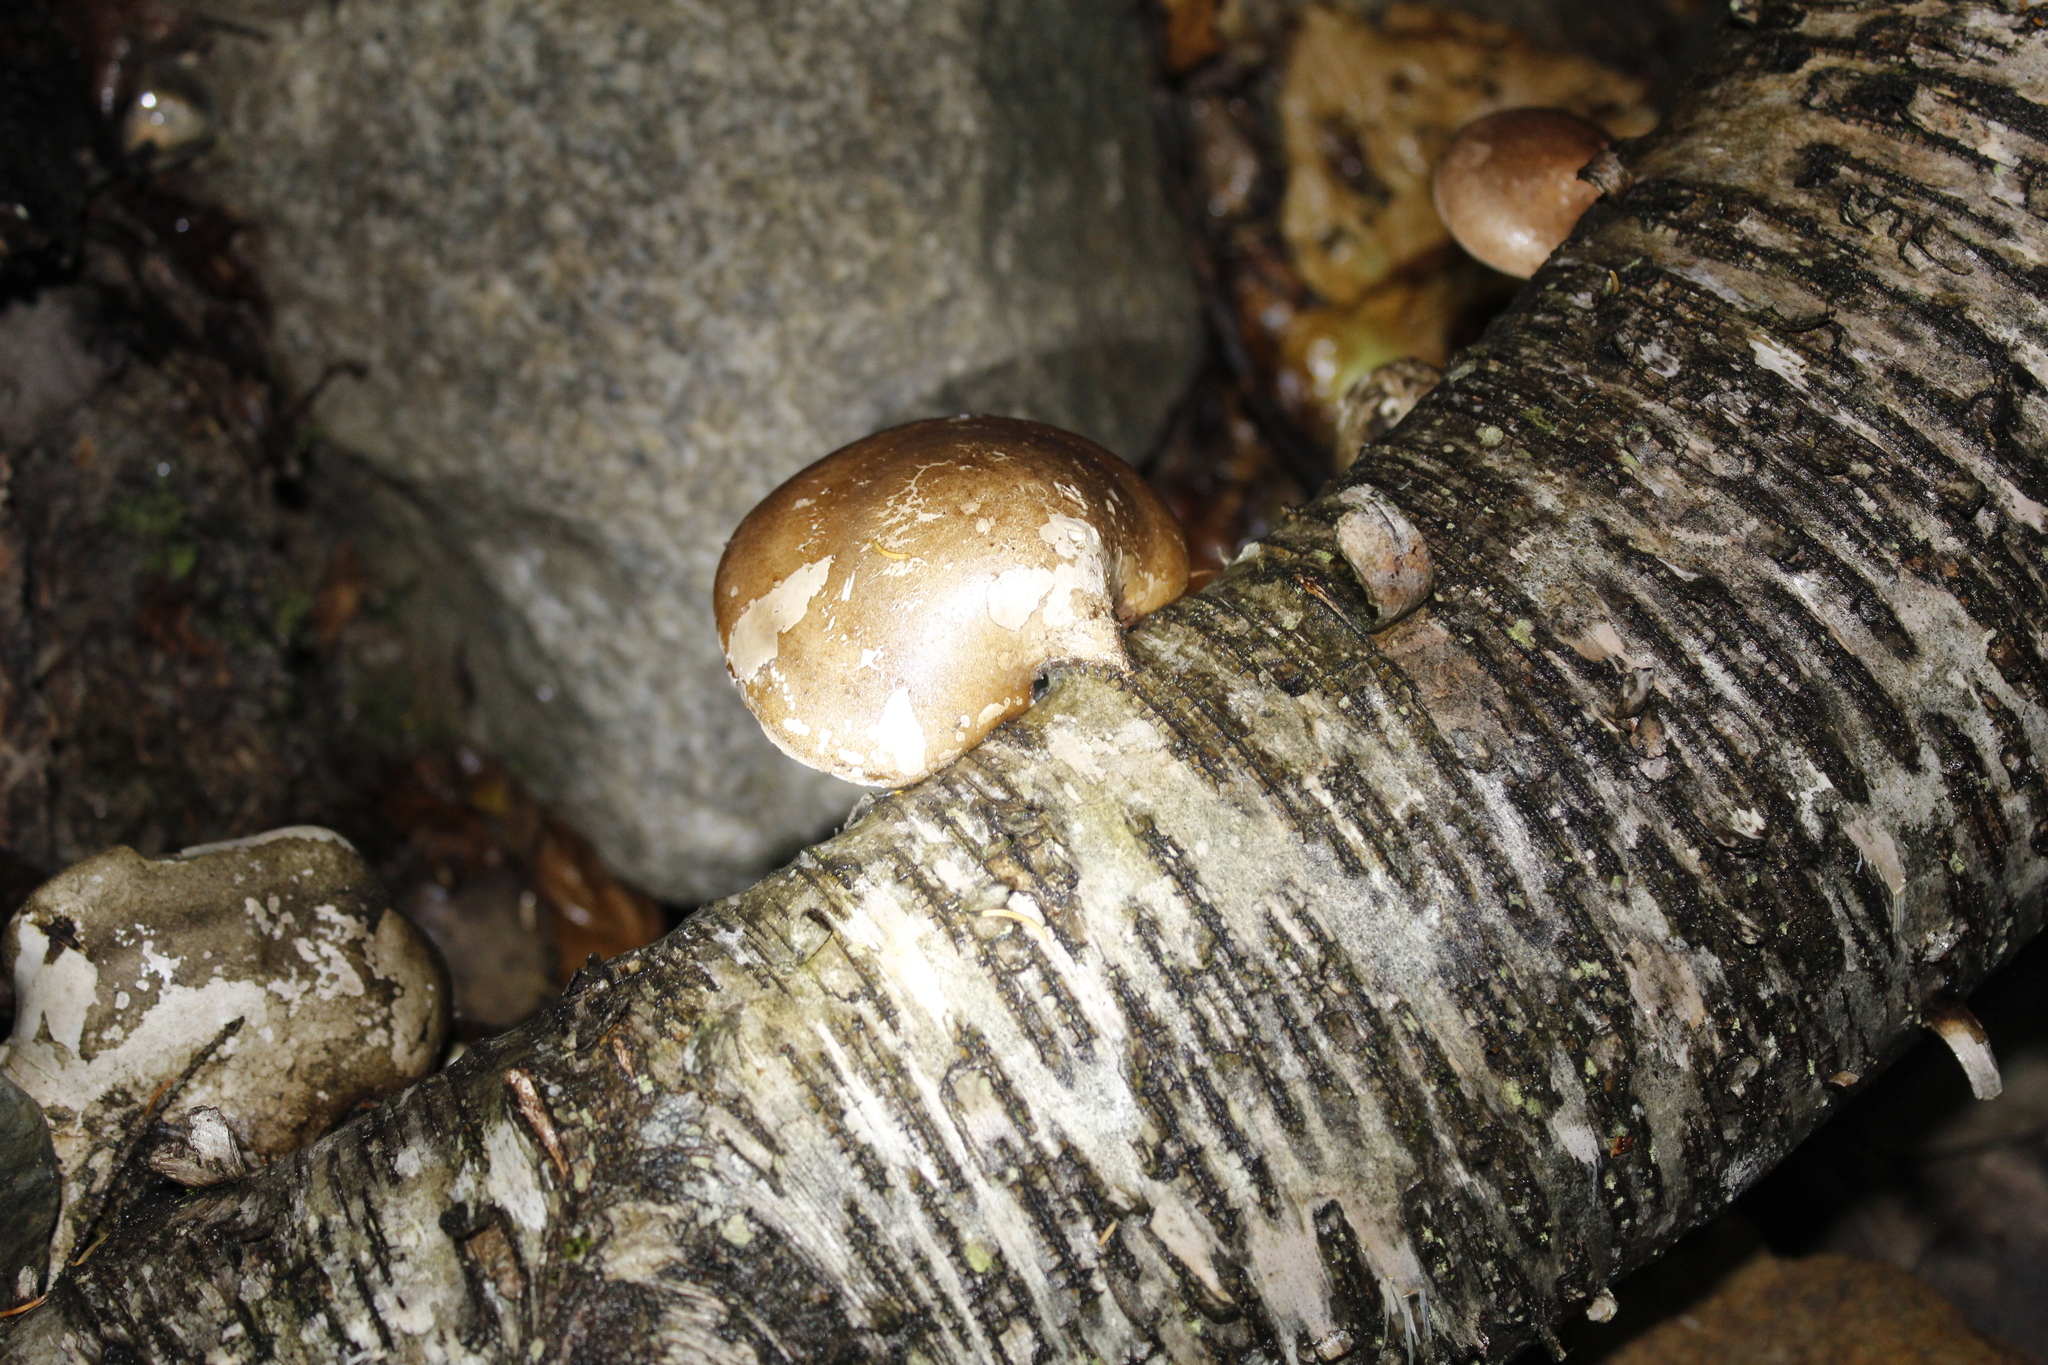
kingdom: Fungi
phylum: Basidiomycota
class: Agaricomycetes
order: Polyporales
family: Fomitopsidaceae
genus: Fomitopsis
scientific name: Fomitopsis betulina
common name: Birch polypore
